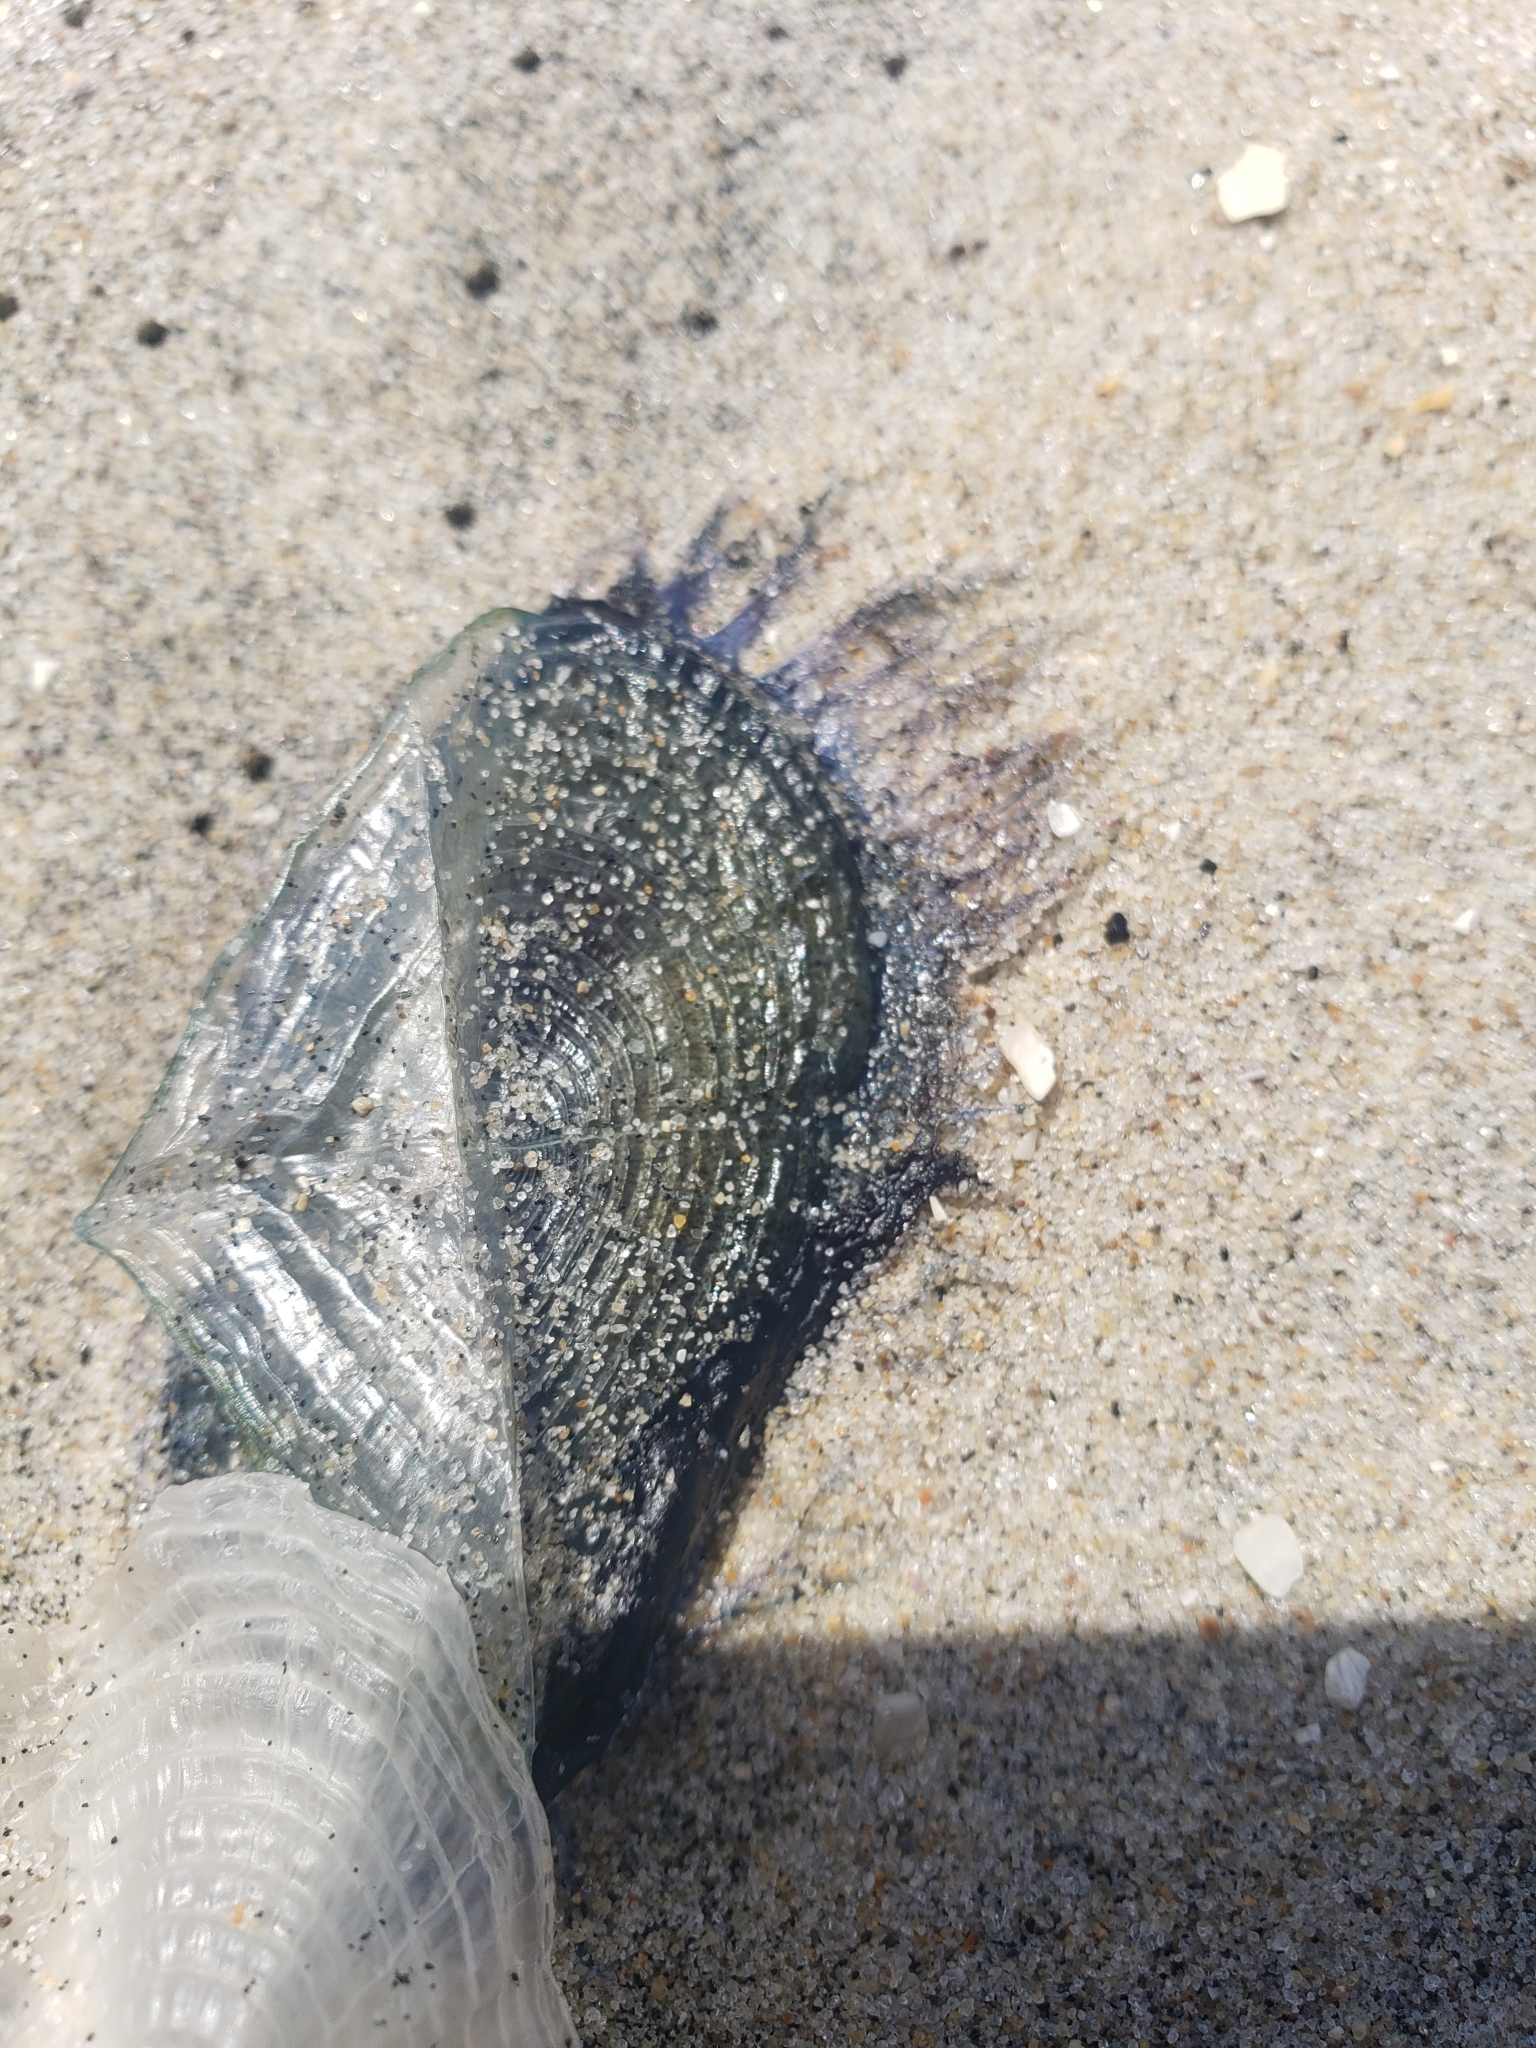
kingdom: Animalia
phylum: Cnidaria
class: Hydrozoa
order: Anthoathecata
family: Porpitidae
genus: Velella
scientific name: Velella velella
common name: By-the-wind-sailor
